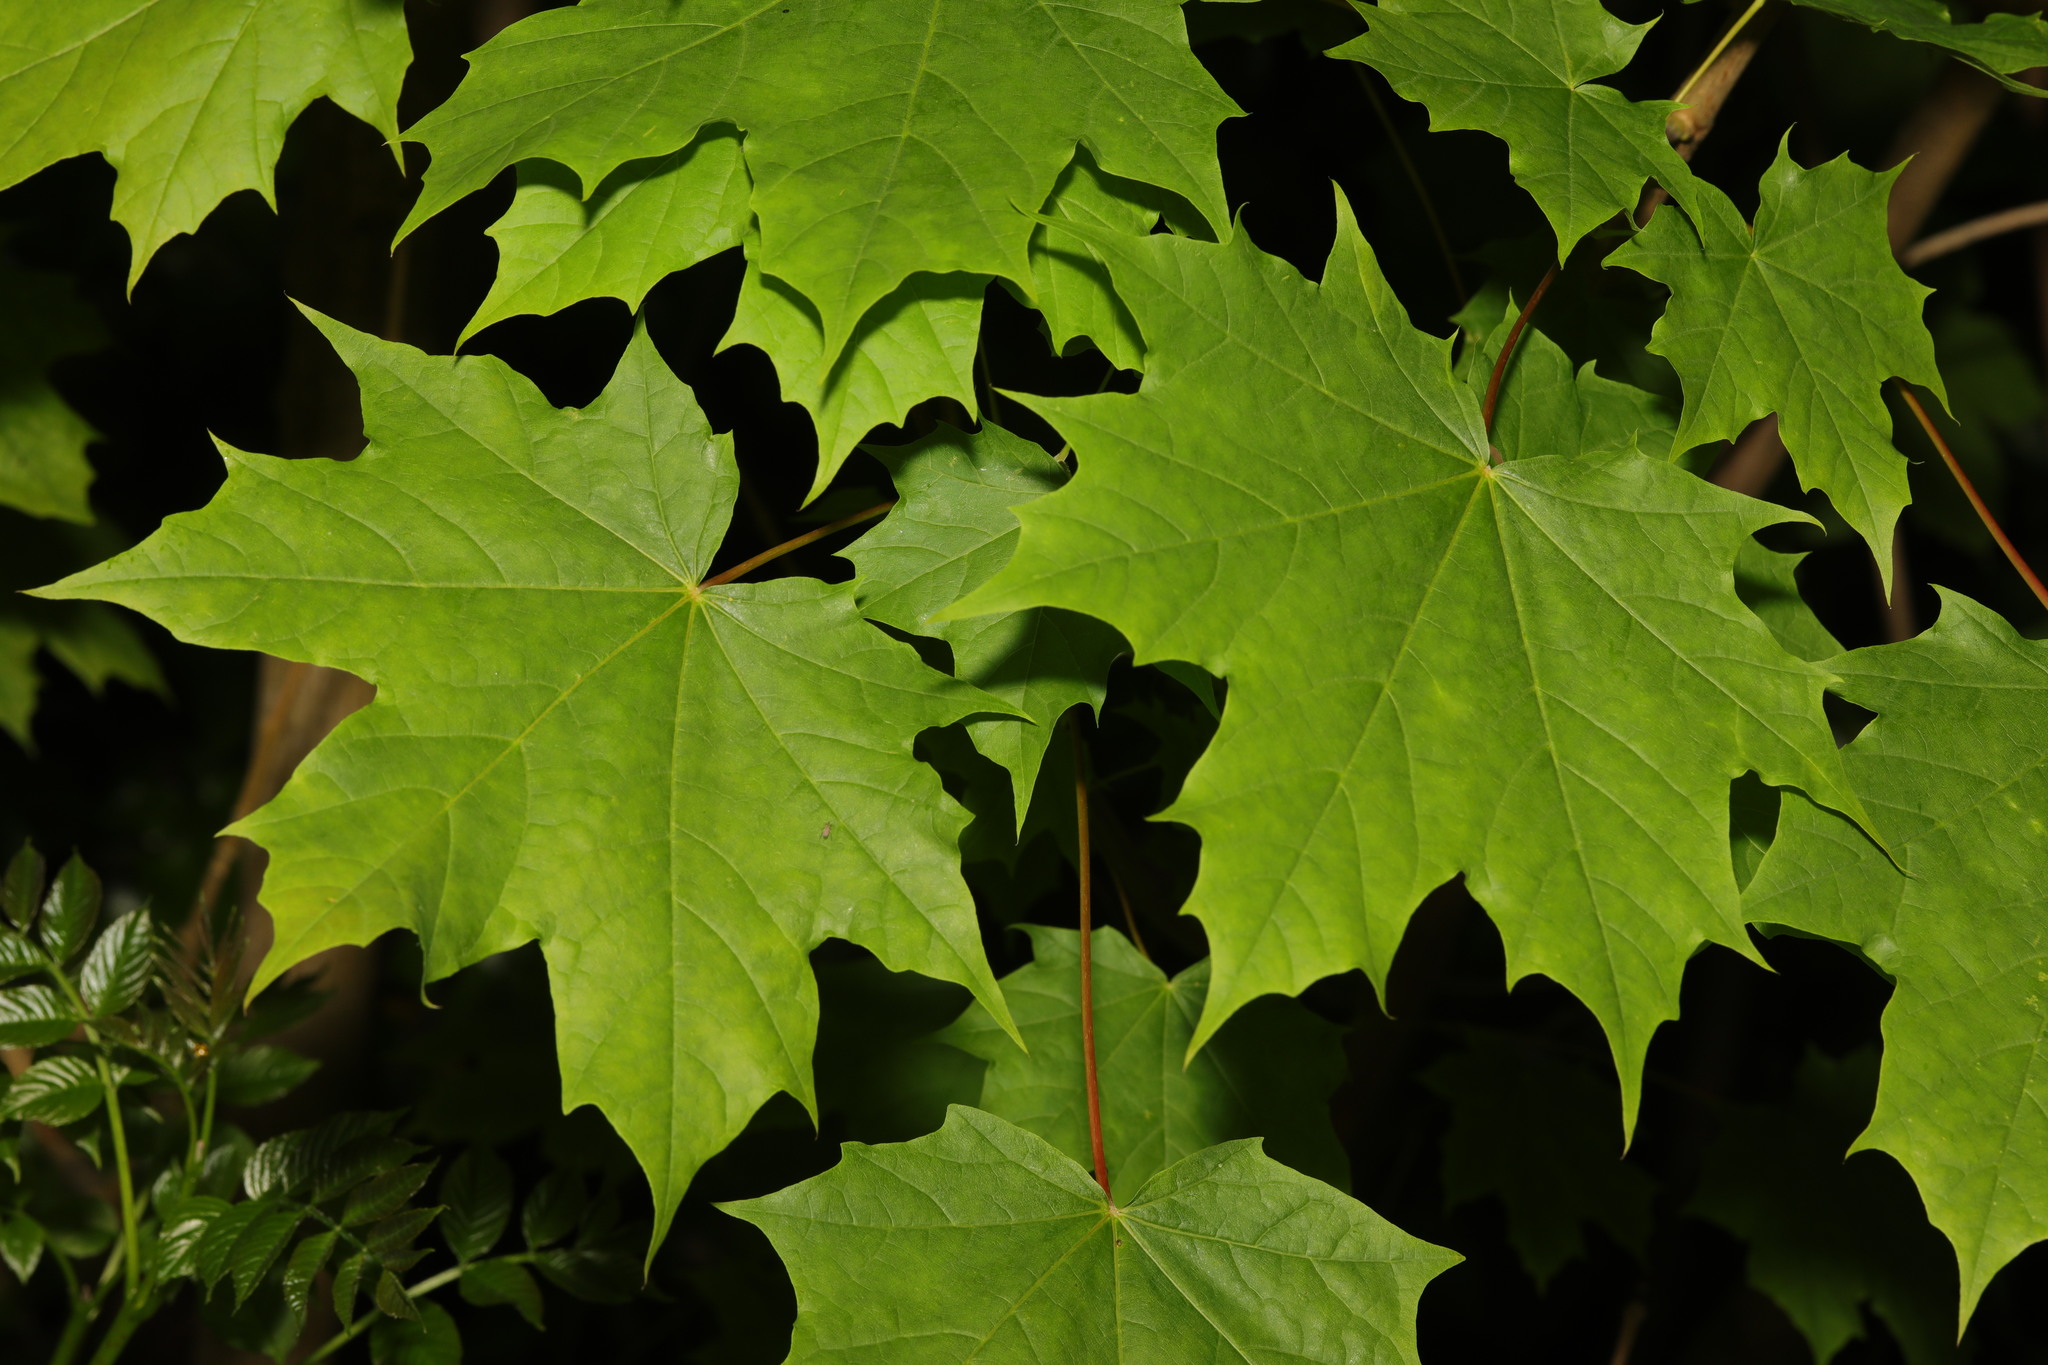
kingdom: Plantae
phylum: Tracheophyta
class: Magnoliopsida
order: Sapindales
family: Sapindaceae
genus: Acer
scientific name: Acer platanoides
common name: Norway maple
